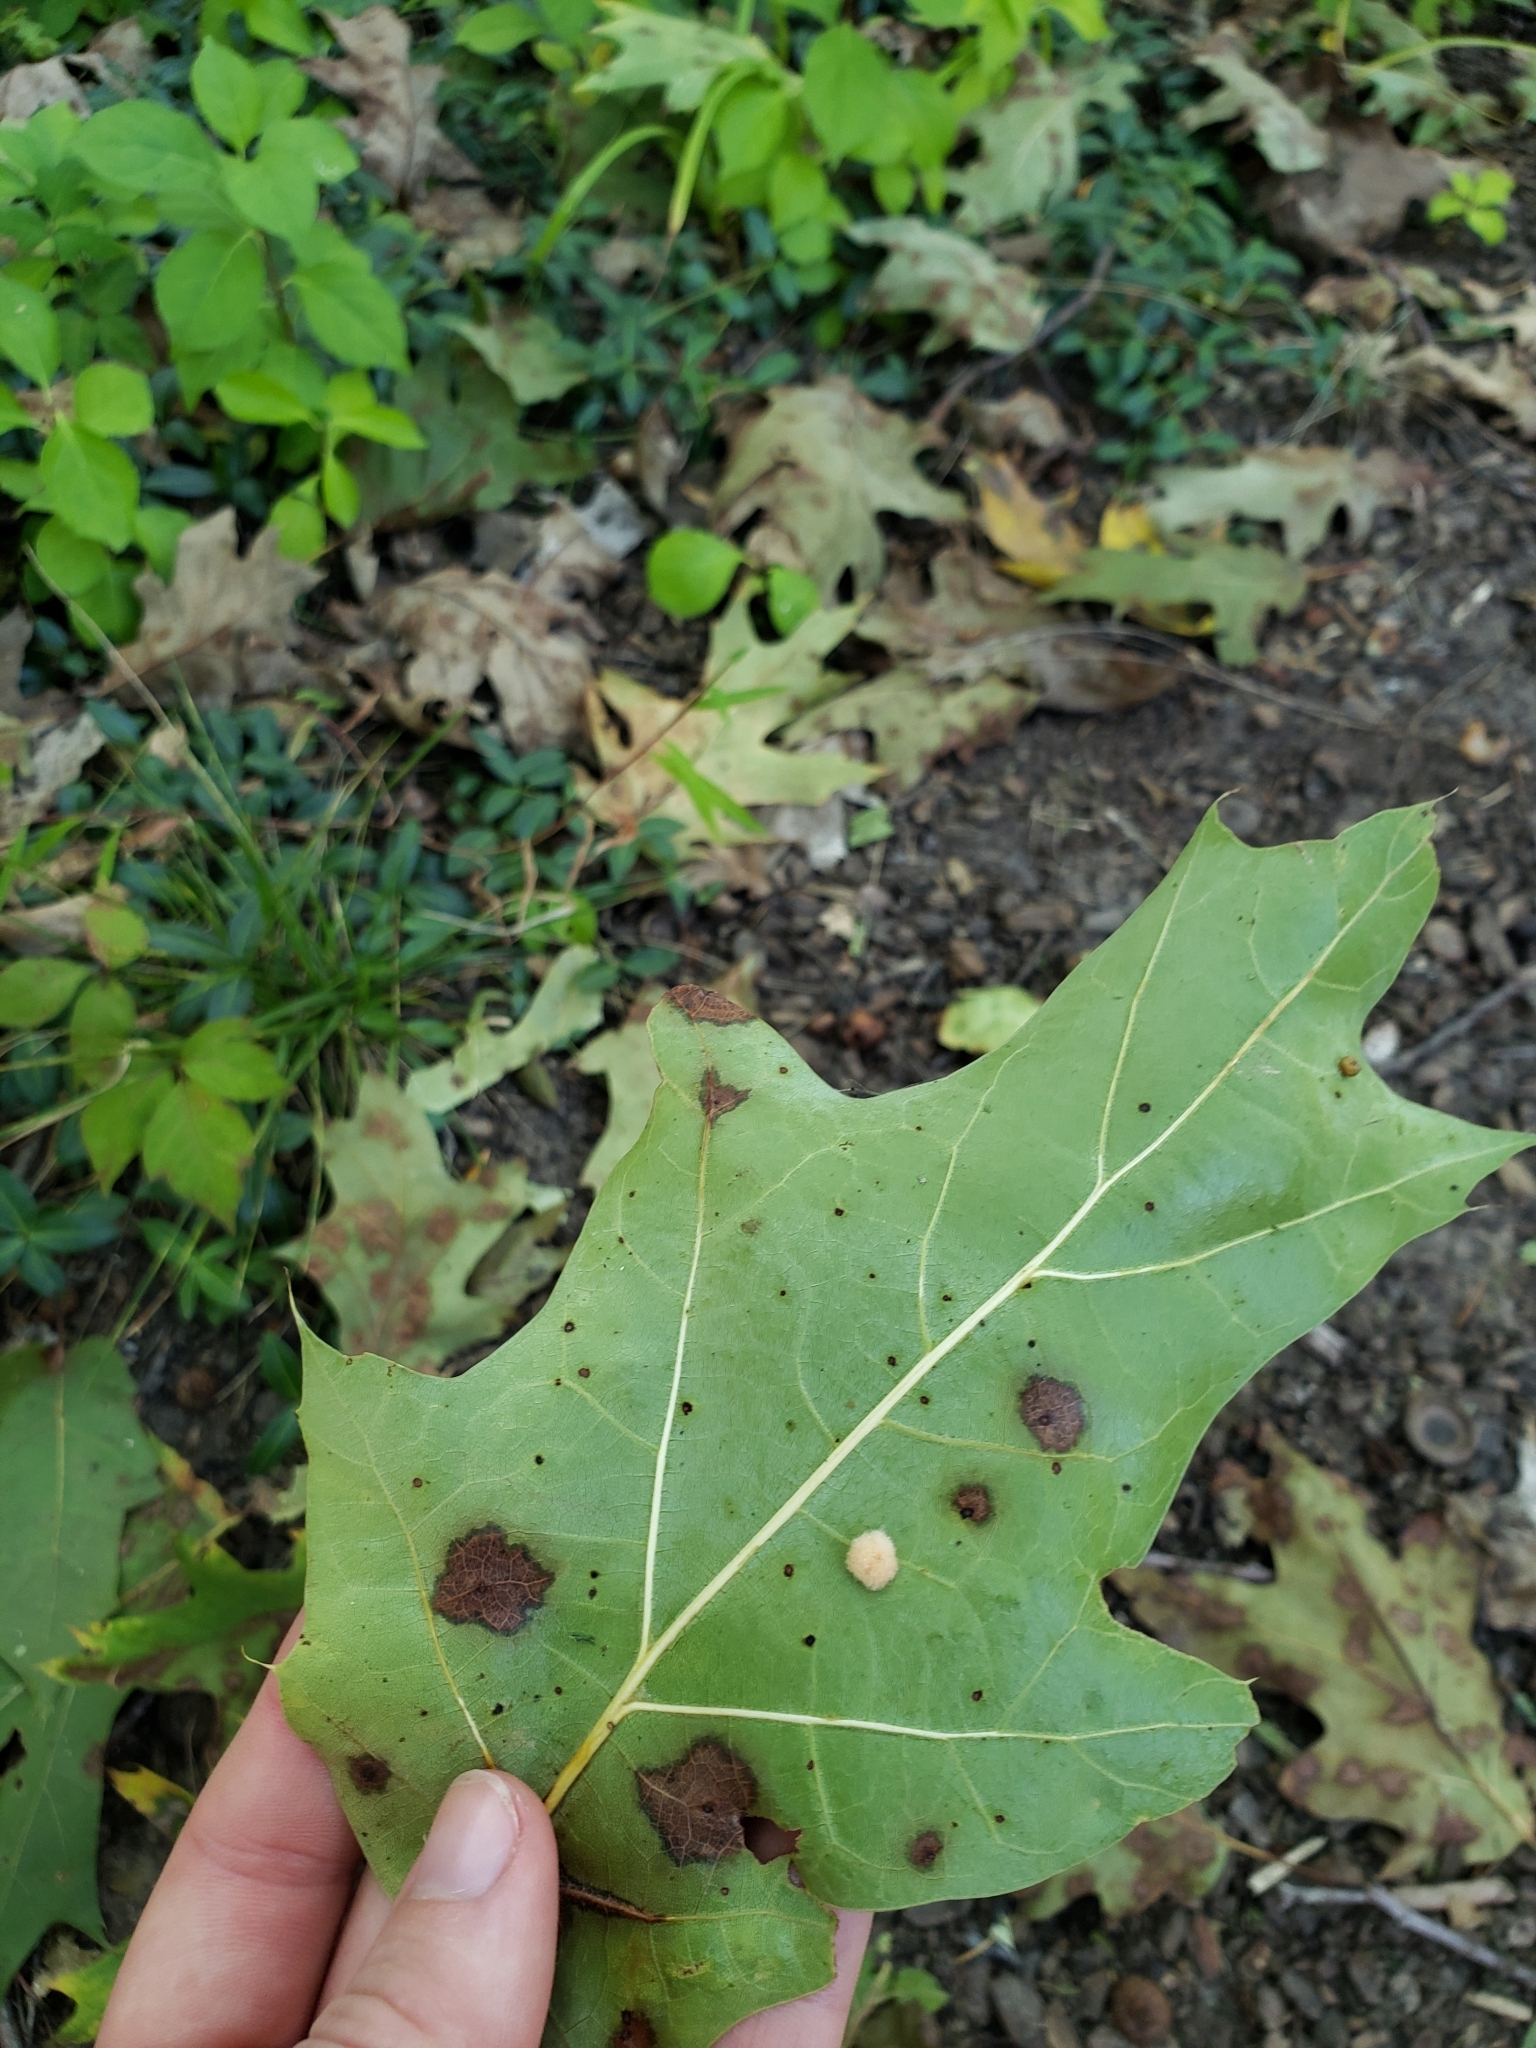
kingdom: Animalia
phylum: Arthropoda
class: Insecta
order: Hymenoptera
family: Cynipidae
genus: Callirhytis
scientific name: Callirhytis
